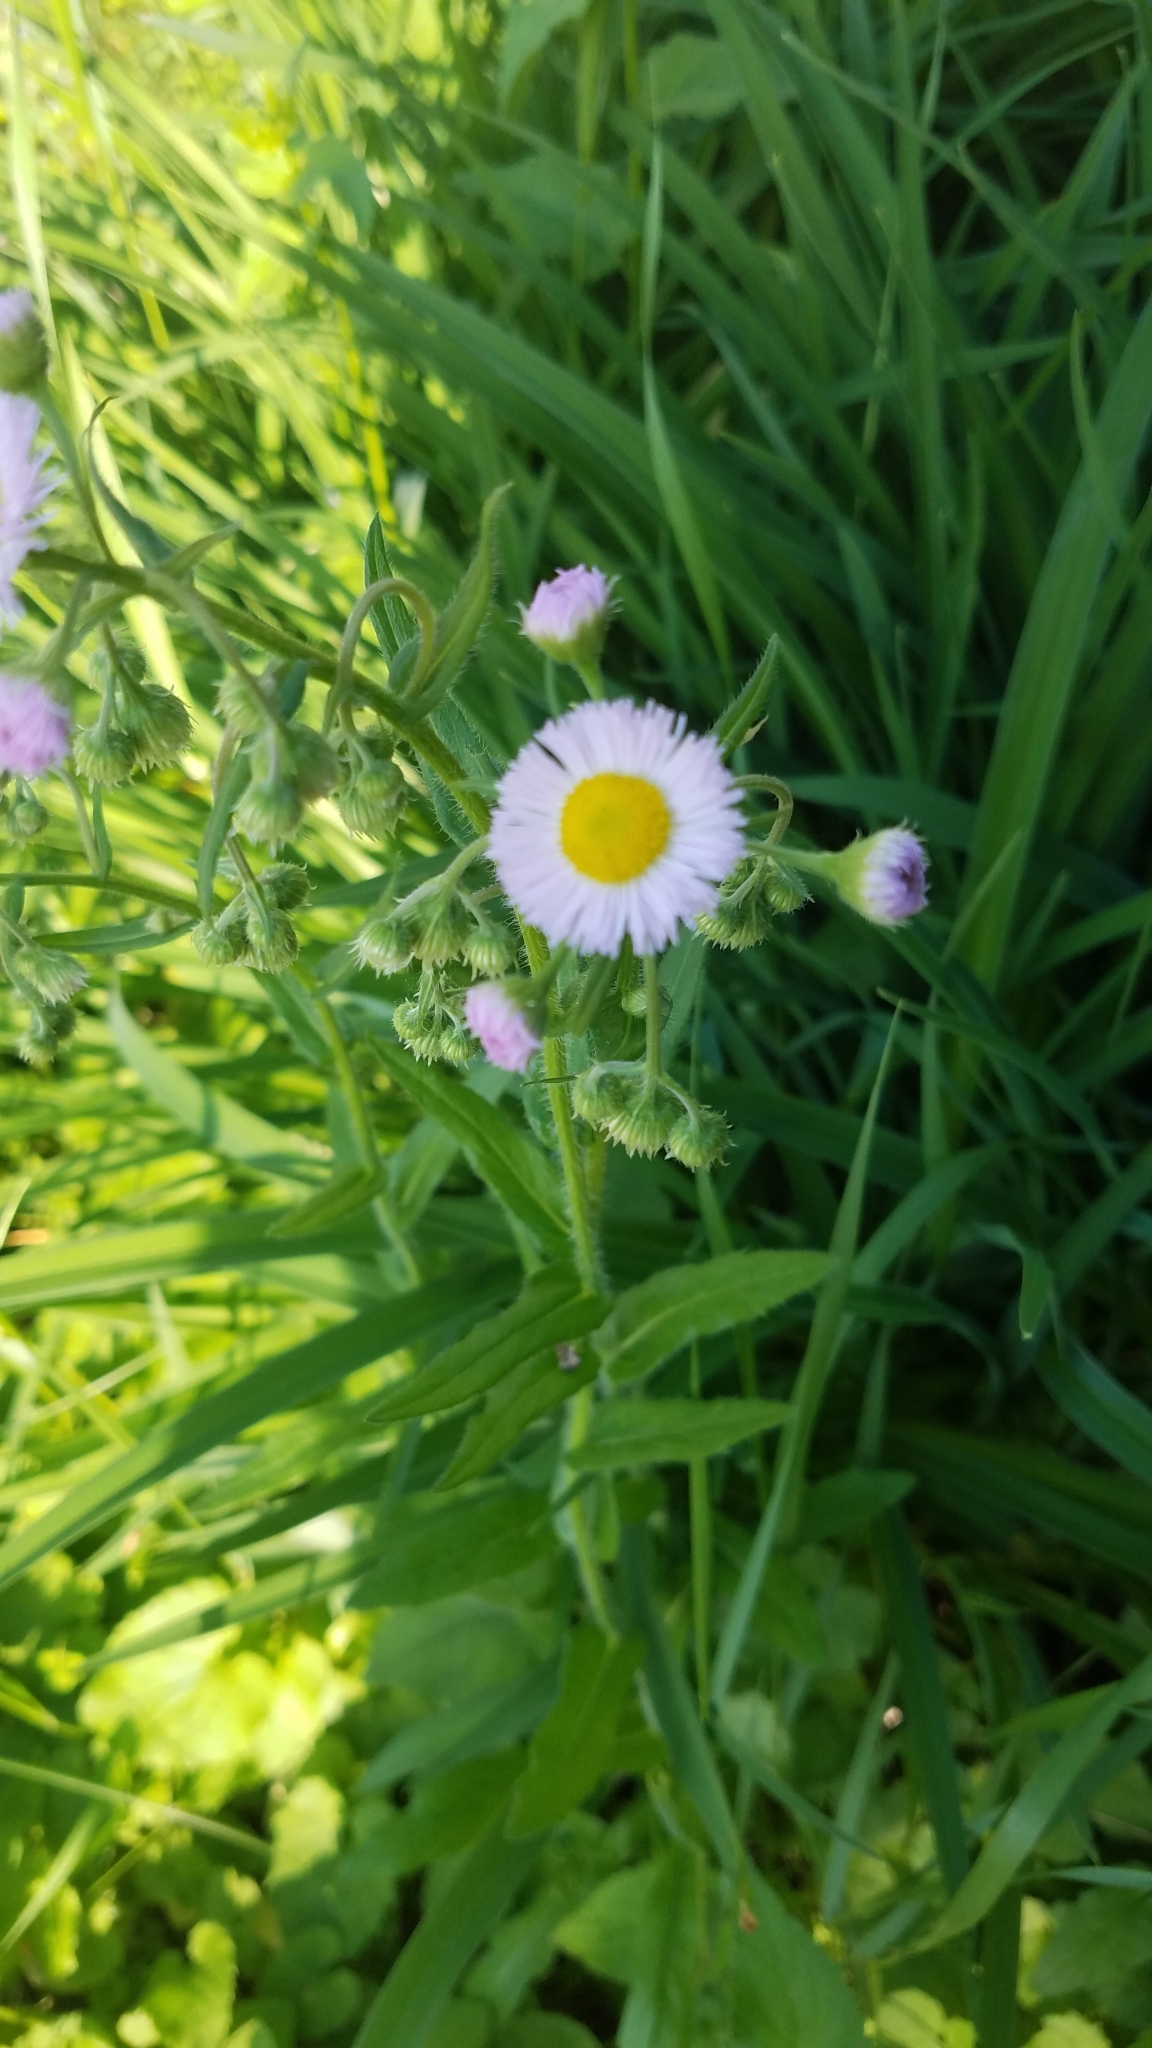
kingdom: Plantae
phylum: Tracheophyta
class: Magnoliopsida
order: Asterales
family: Asteraceae
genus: Erigeron
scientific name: Erigeron philadelphicus
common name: Robin's-plantain
